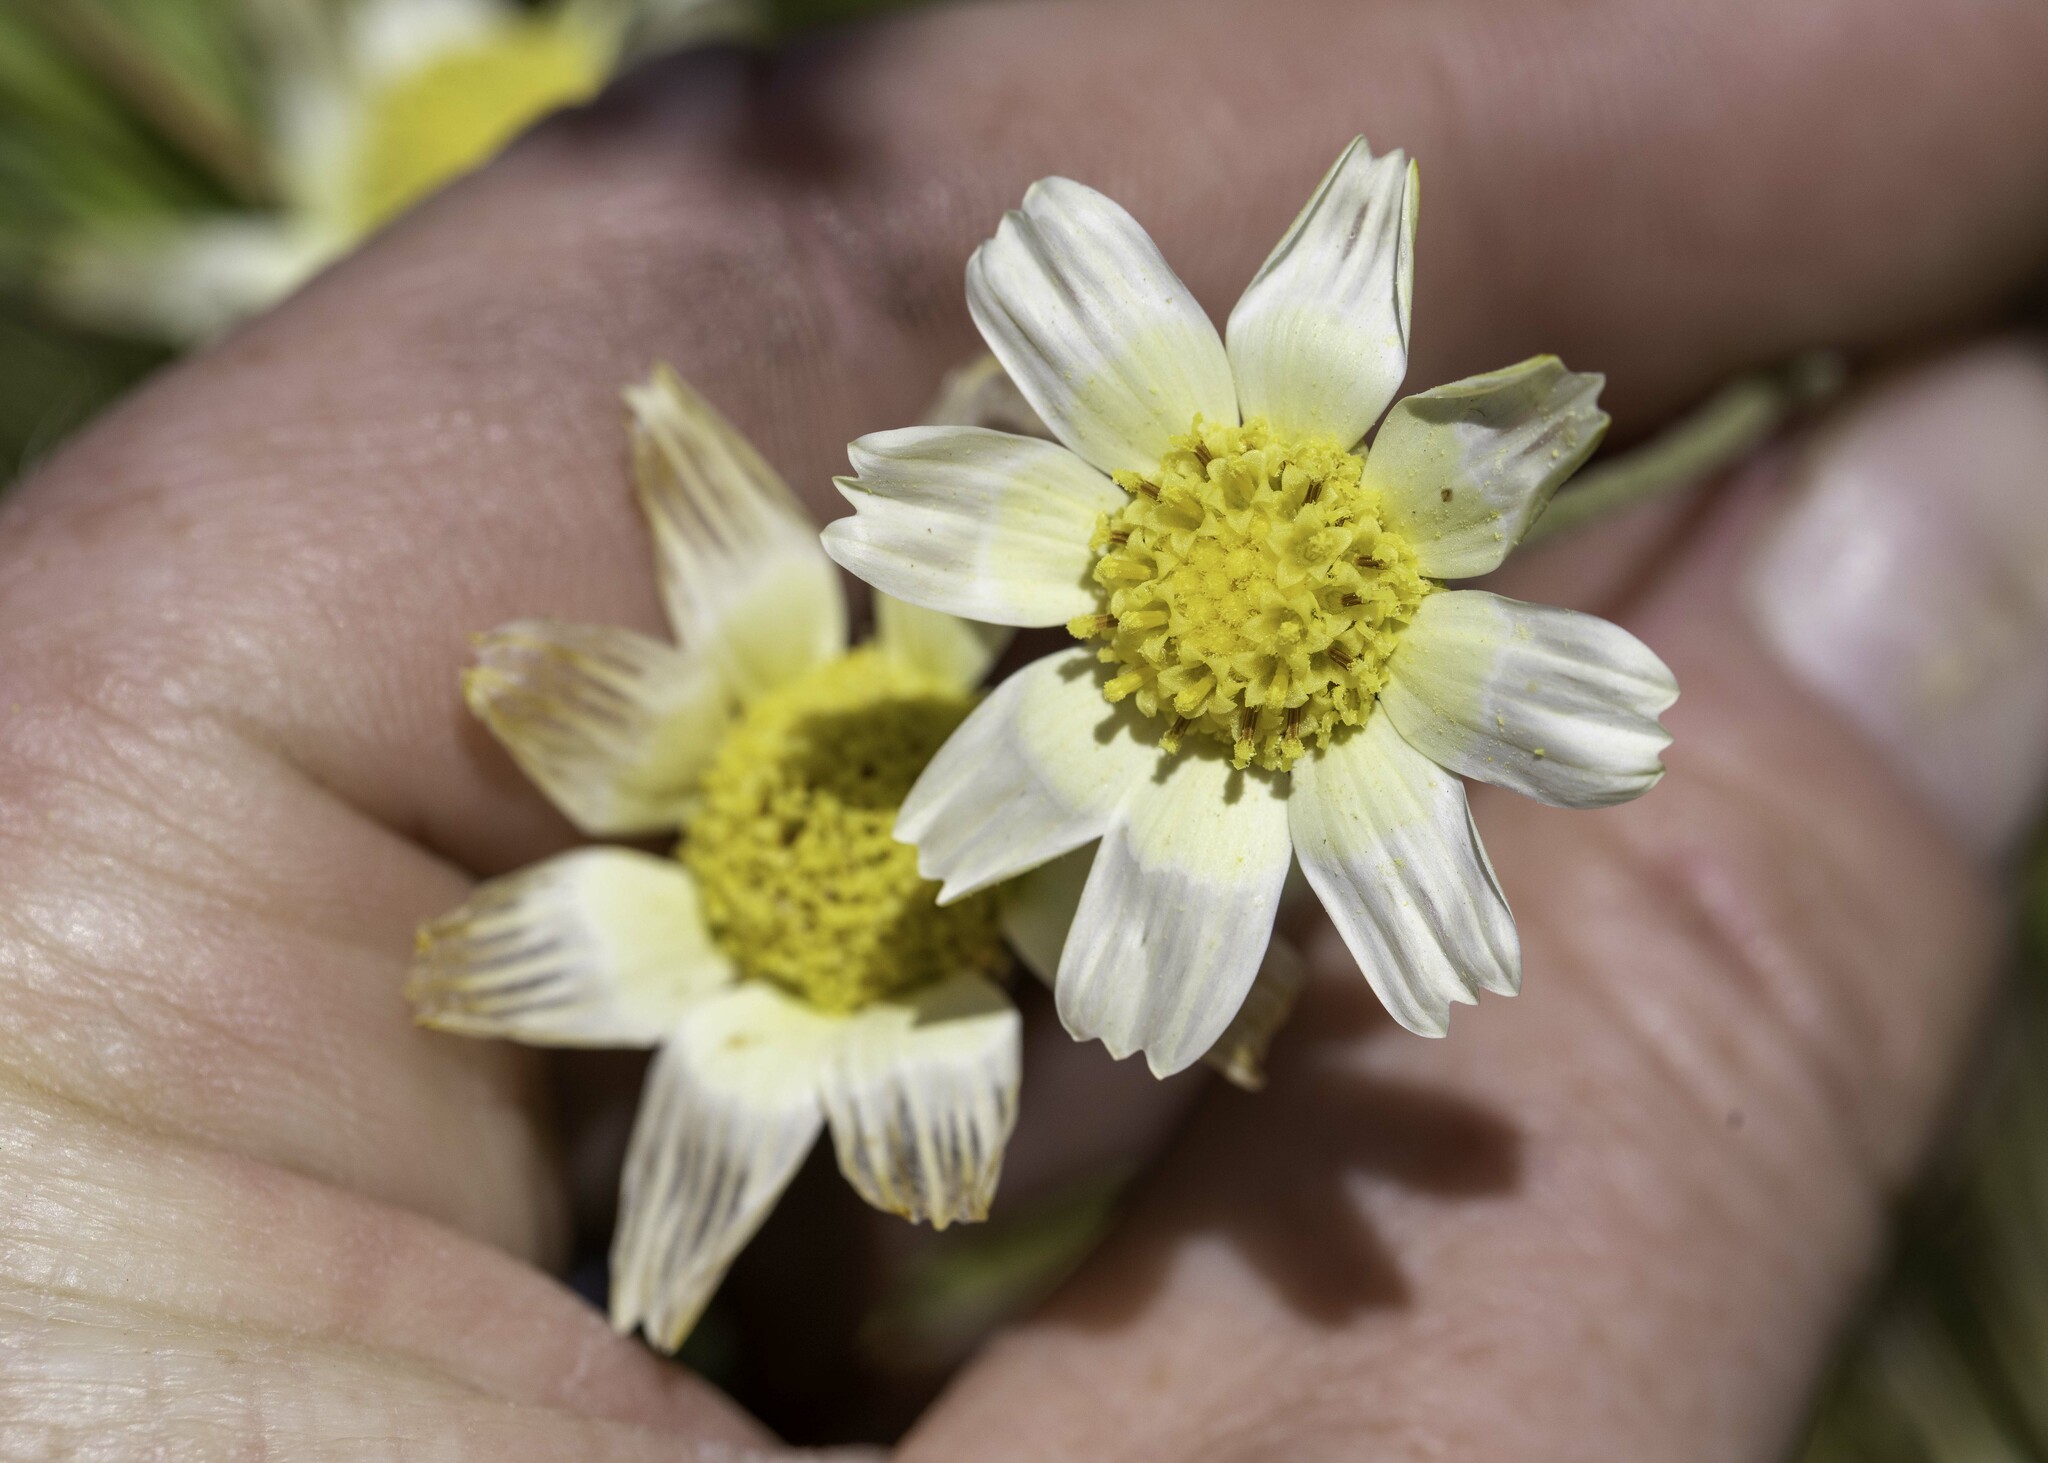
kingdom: Plantae
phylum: Tracheophyta
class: Magnoliopsida
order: Asterales
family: Asteraceae
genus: Monolopia
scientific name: Monolopia lanceolata
